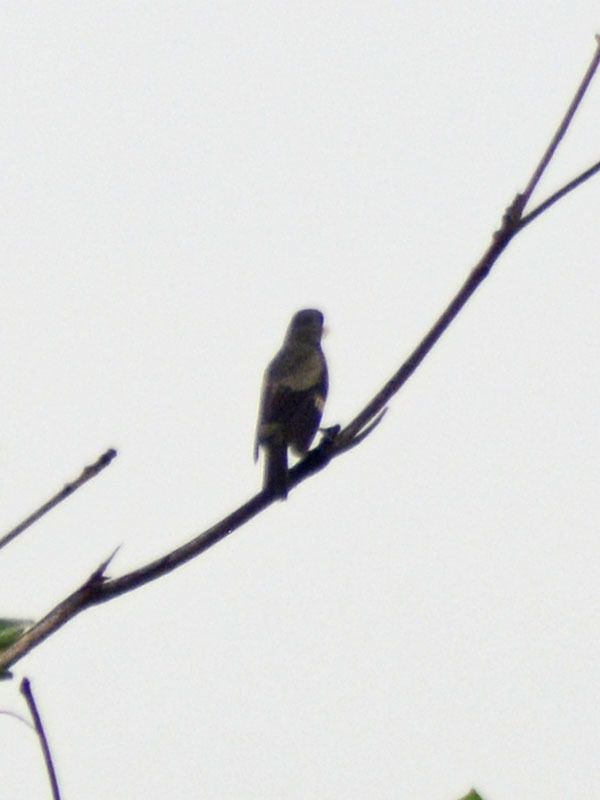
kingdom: Animalia
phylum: Chordata
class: Aves
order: Passeriformes
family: Thraupidae
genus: Thraupis
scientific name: Thraupis abbas
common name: Yellow-winged tanager
